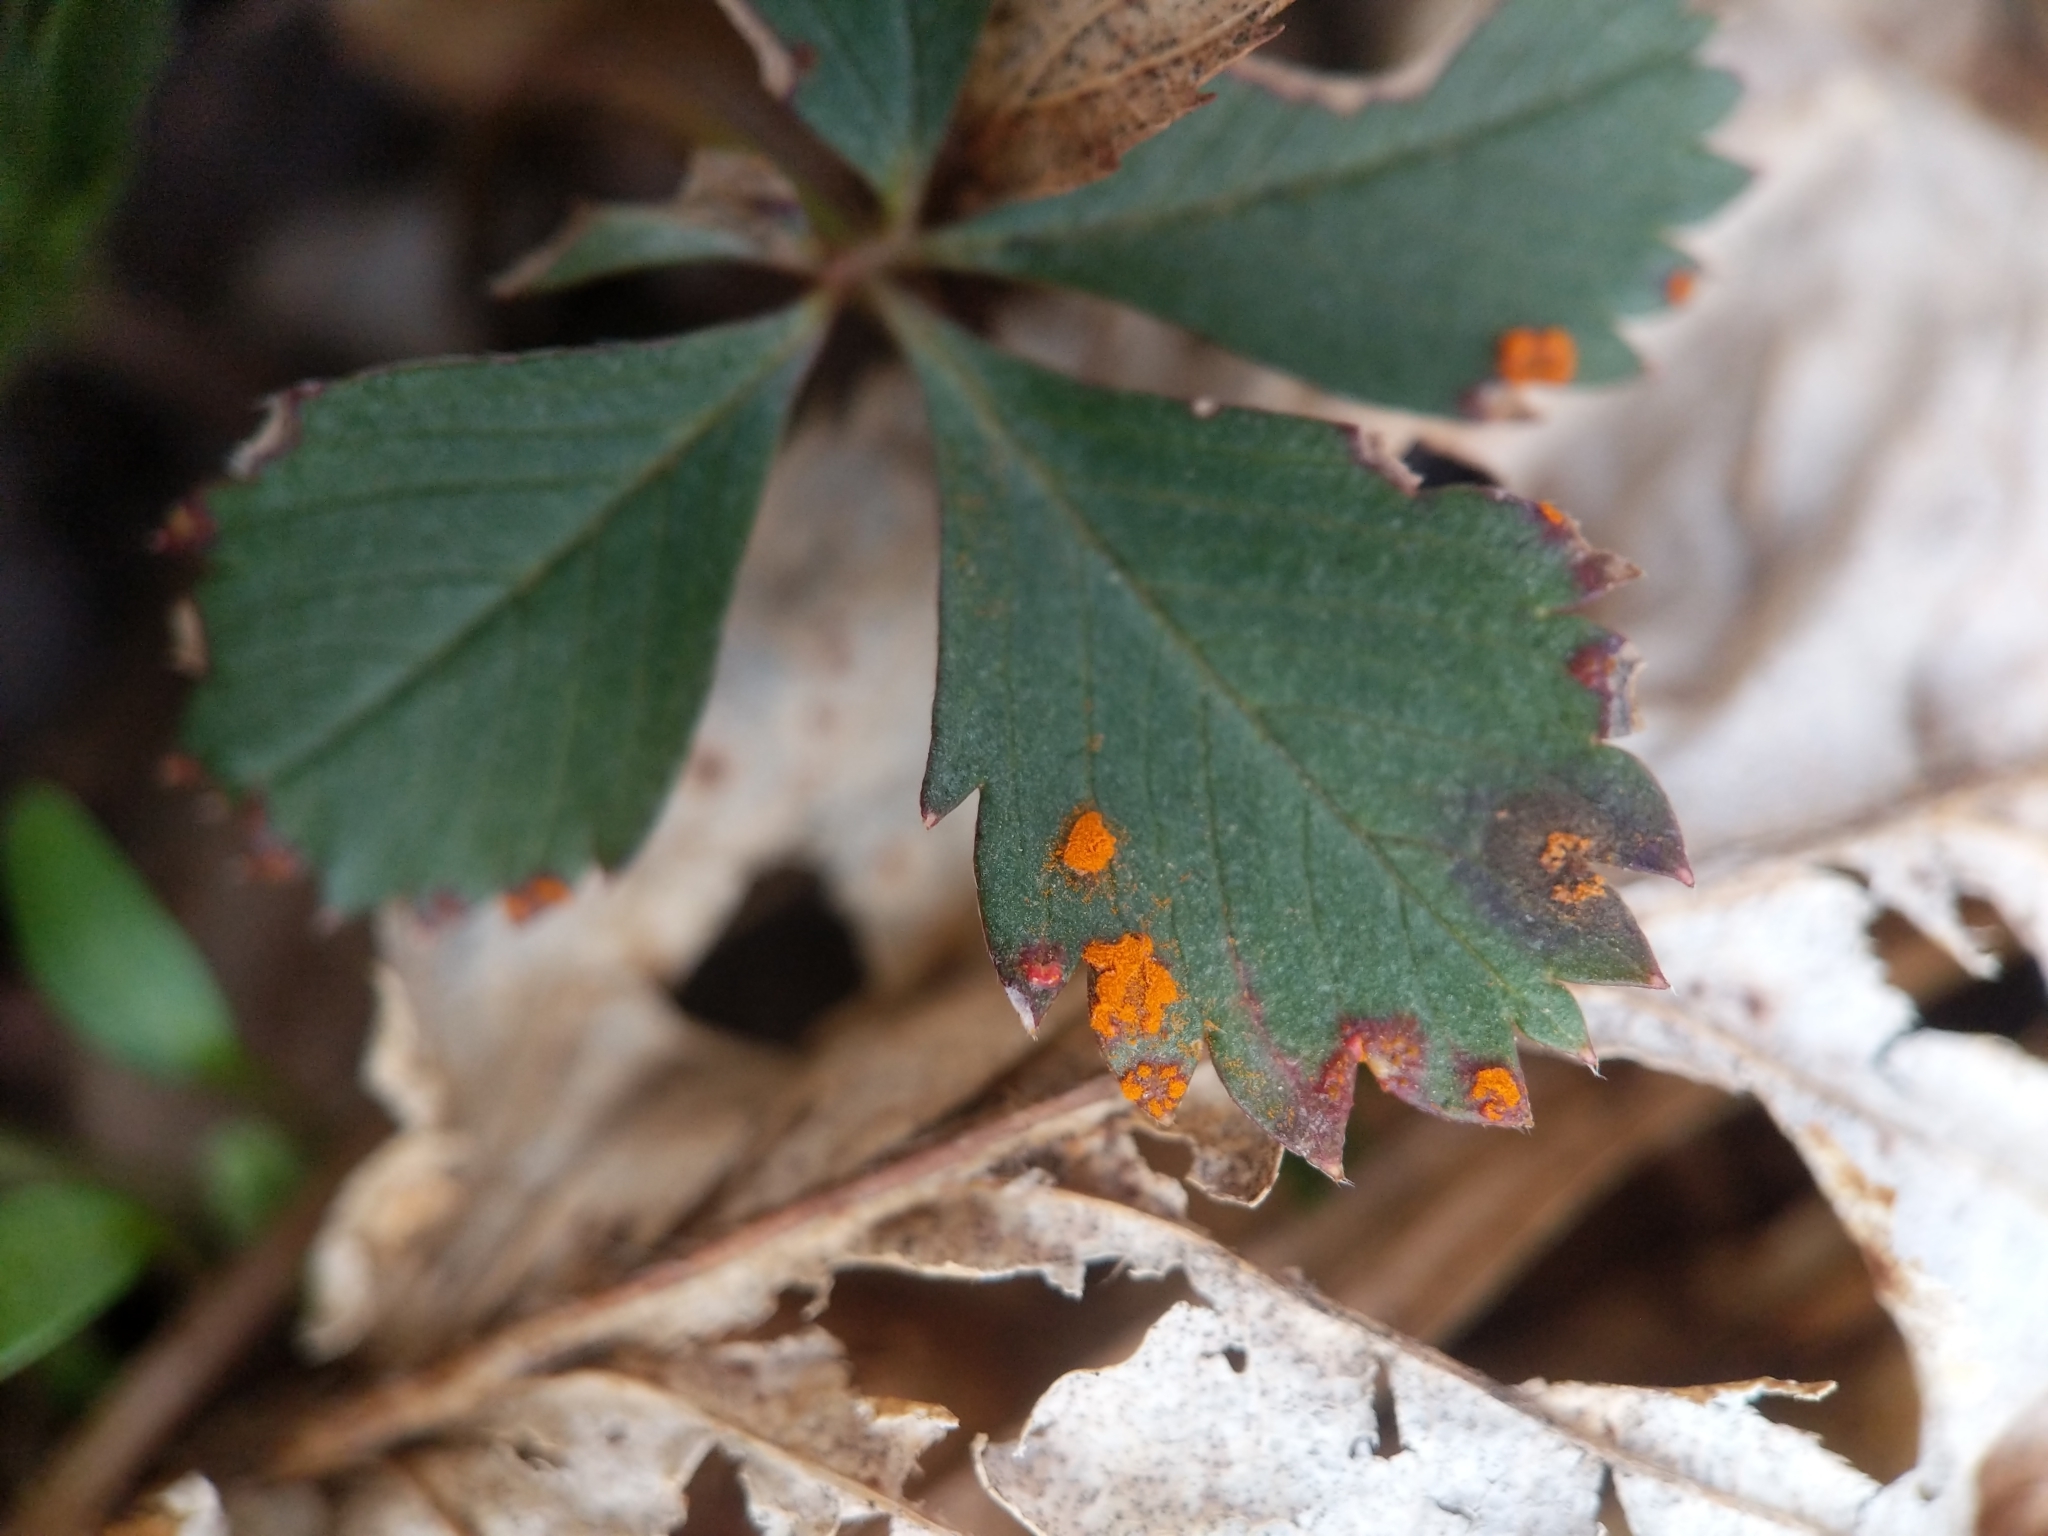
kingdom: Fungi
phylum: Basidiomycota
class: Pucciniomycetes
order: Pucciniales
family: Cronartiaceae
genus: Quasipucciniastrum
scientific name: Quasipucciniastrum potentillae
